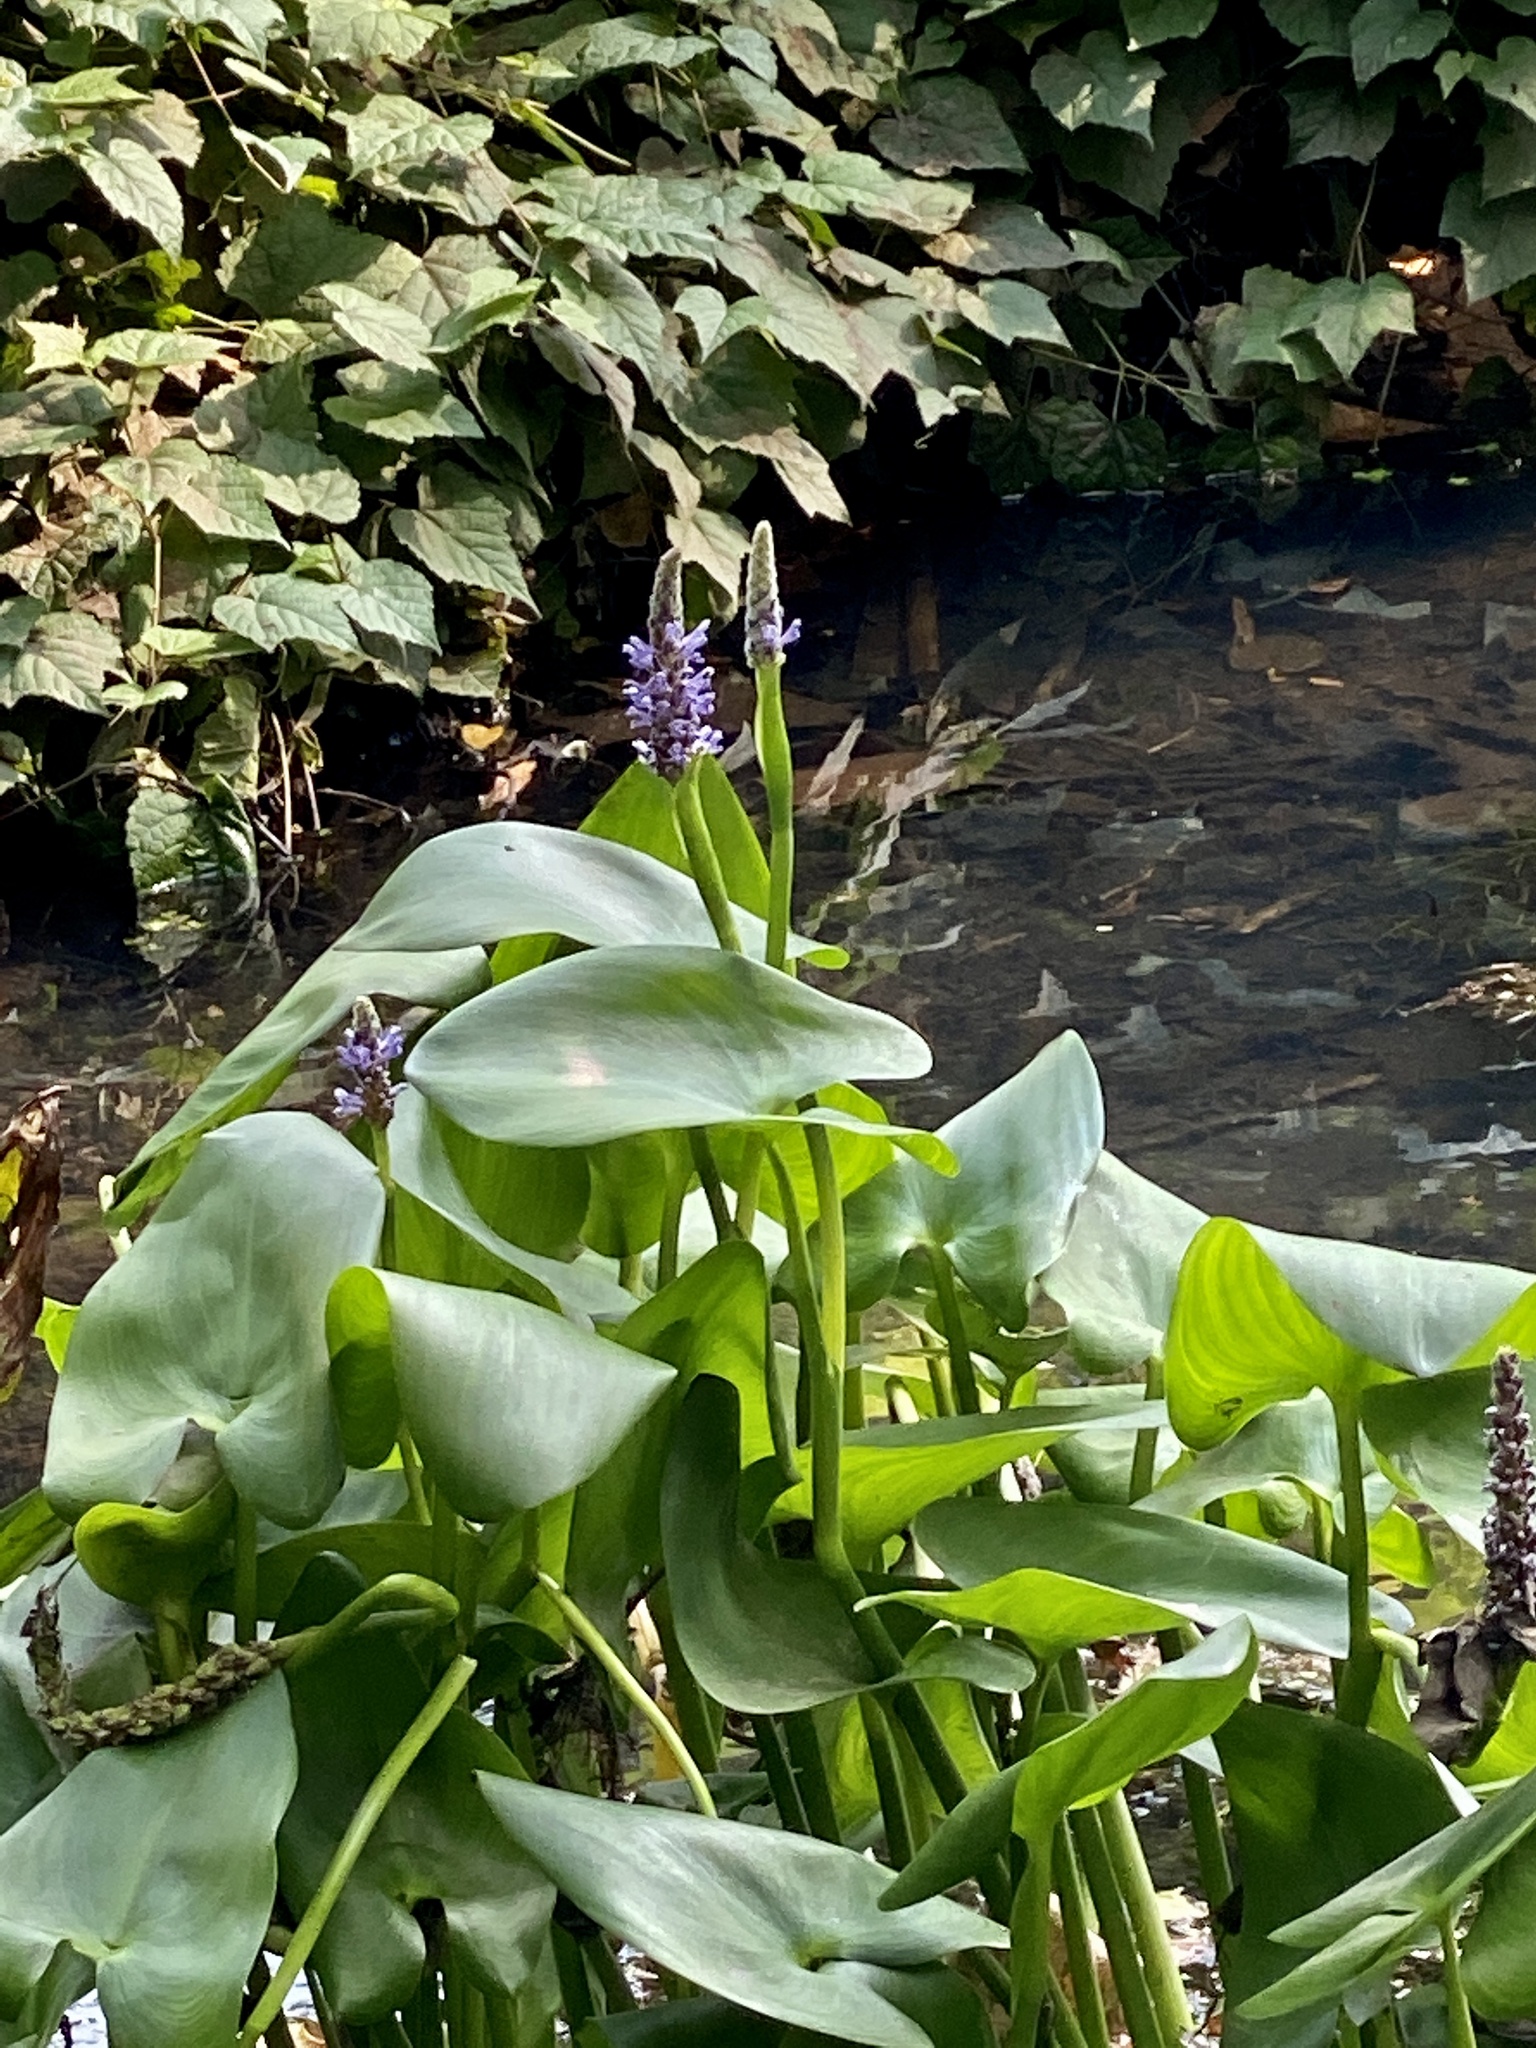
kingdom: Plantae
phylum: Tracheophyta
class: Liliopsida
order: Commelinales
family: Pontederiaceae
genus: Pontederia
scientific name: Pontederia cordata
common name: Pickerelweed
